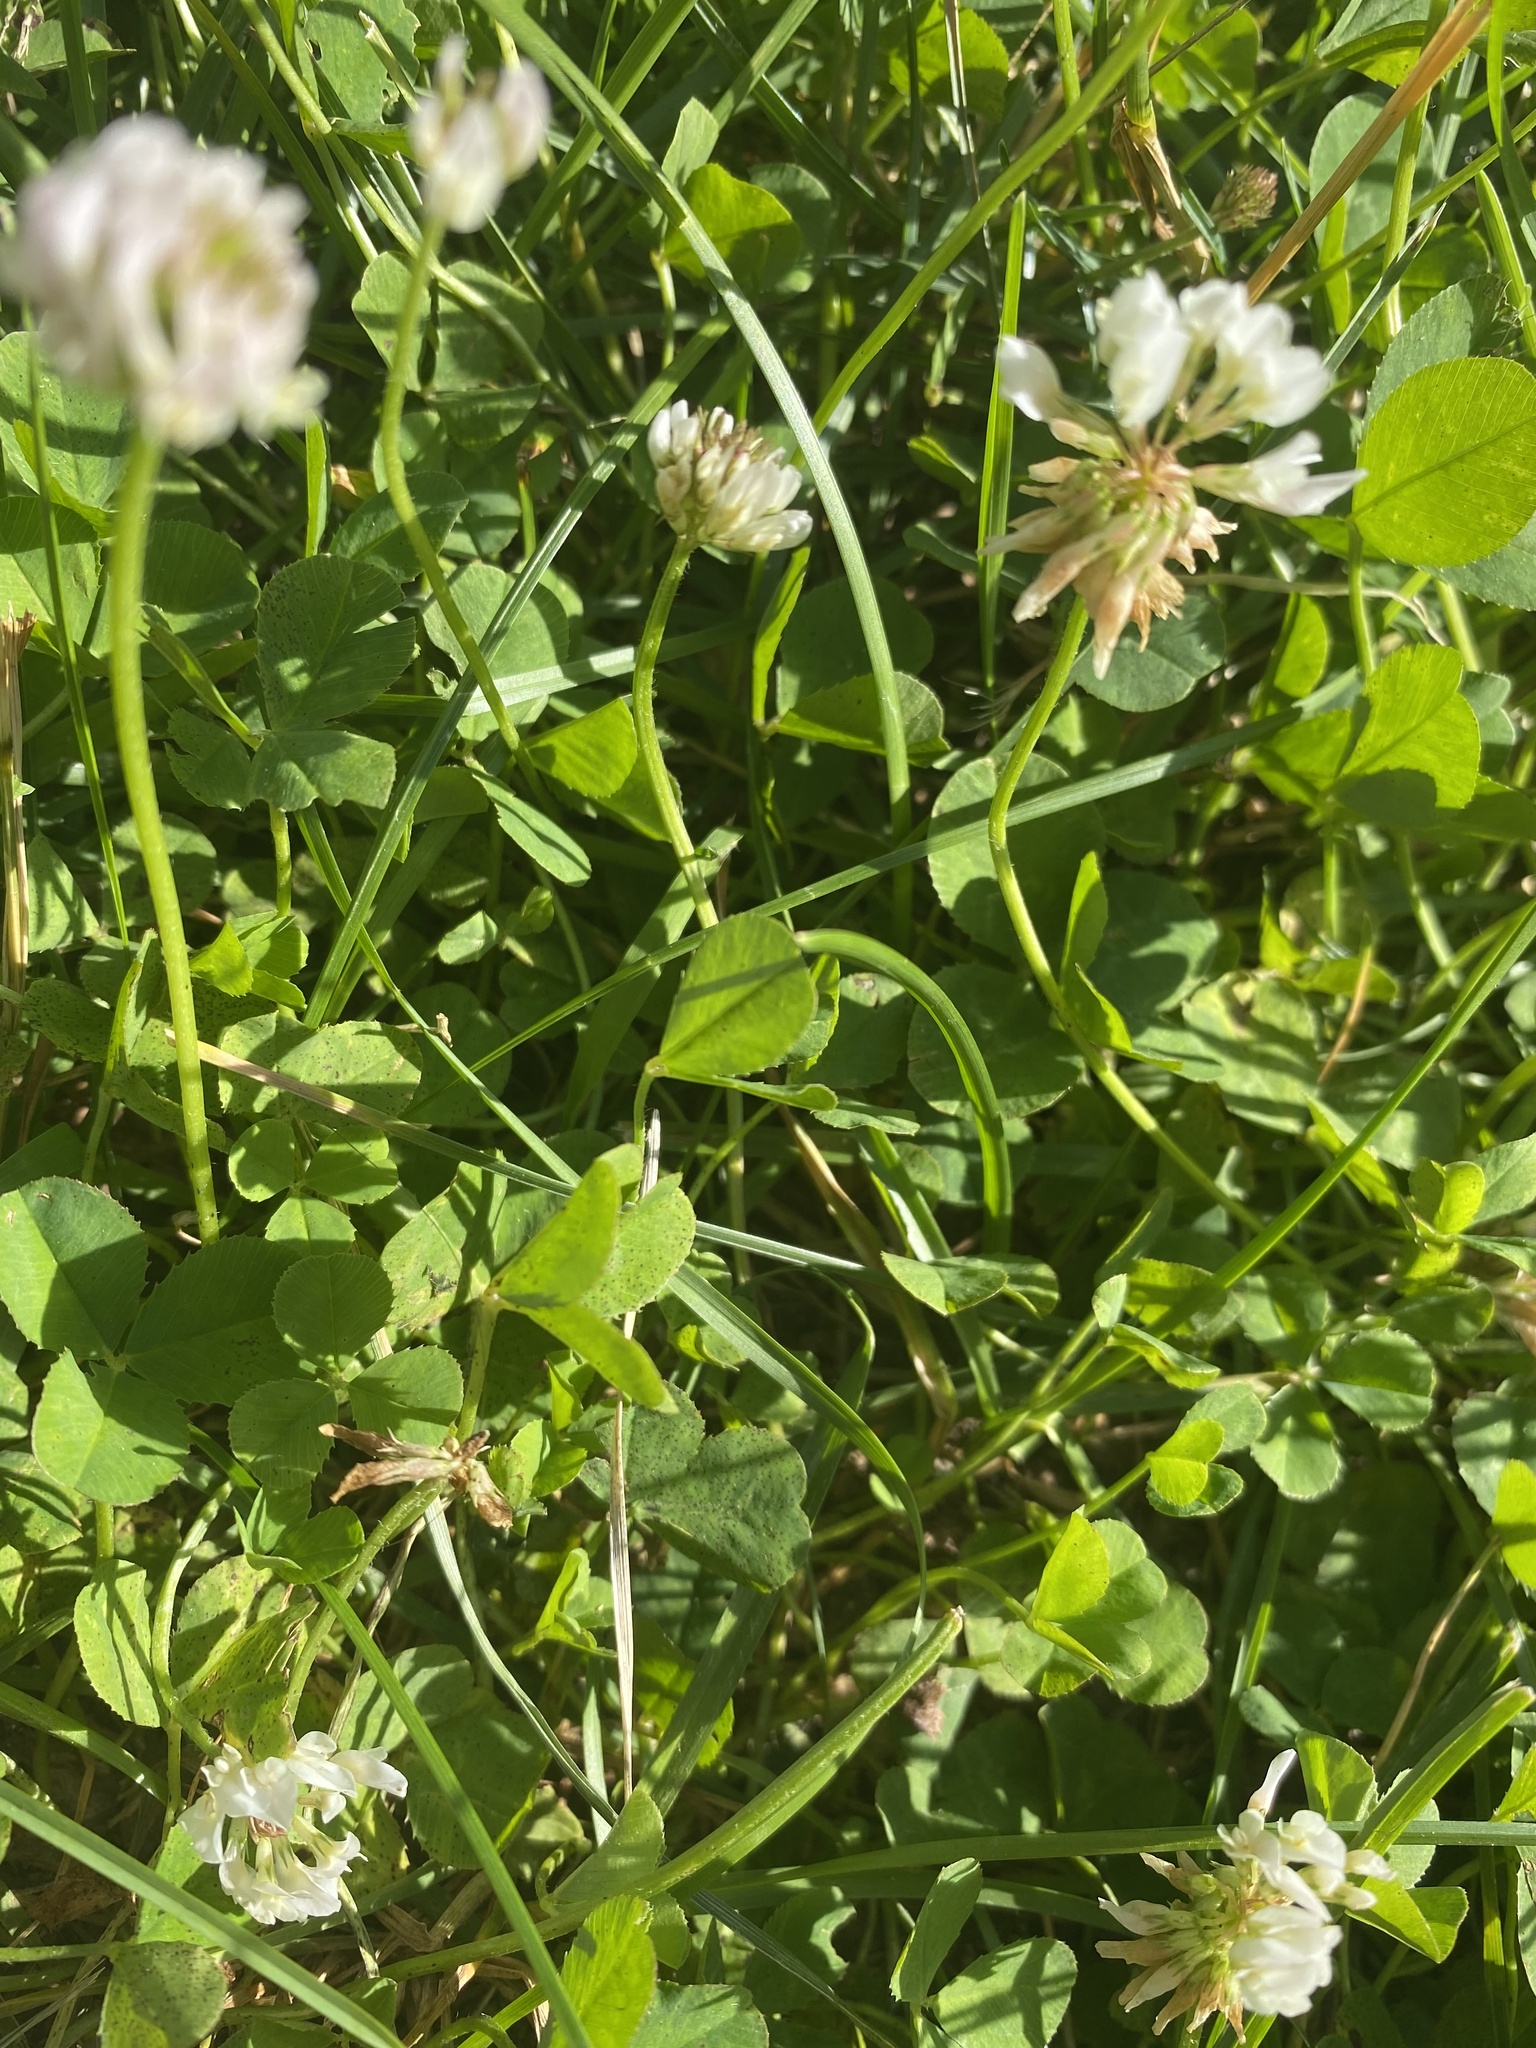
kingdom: Plantae
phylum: Tracheophyta
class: Magnoliopsida
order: Fabales
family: Fabaceae
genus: Trifolium
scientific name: Trifolium repens
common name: White clover
